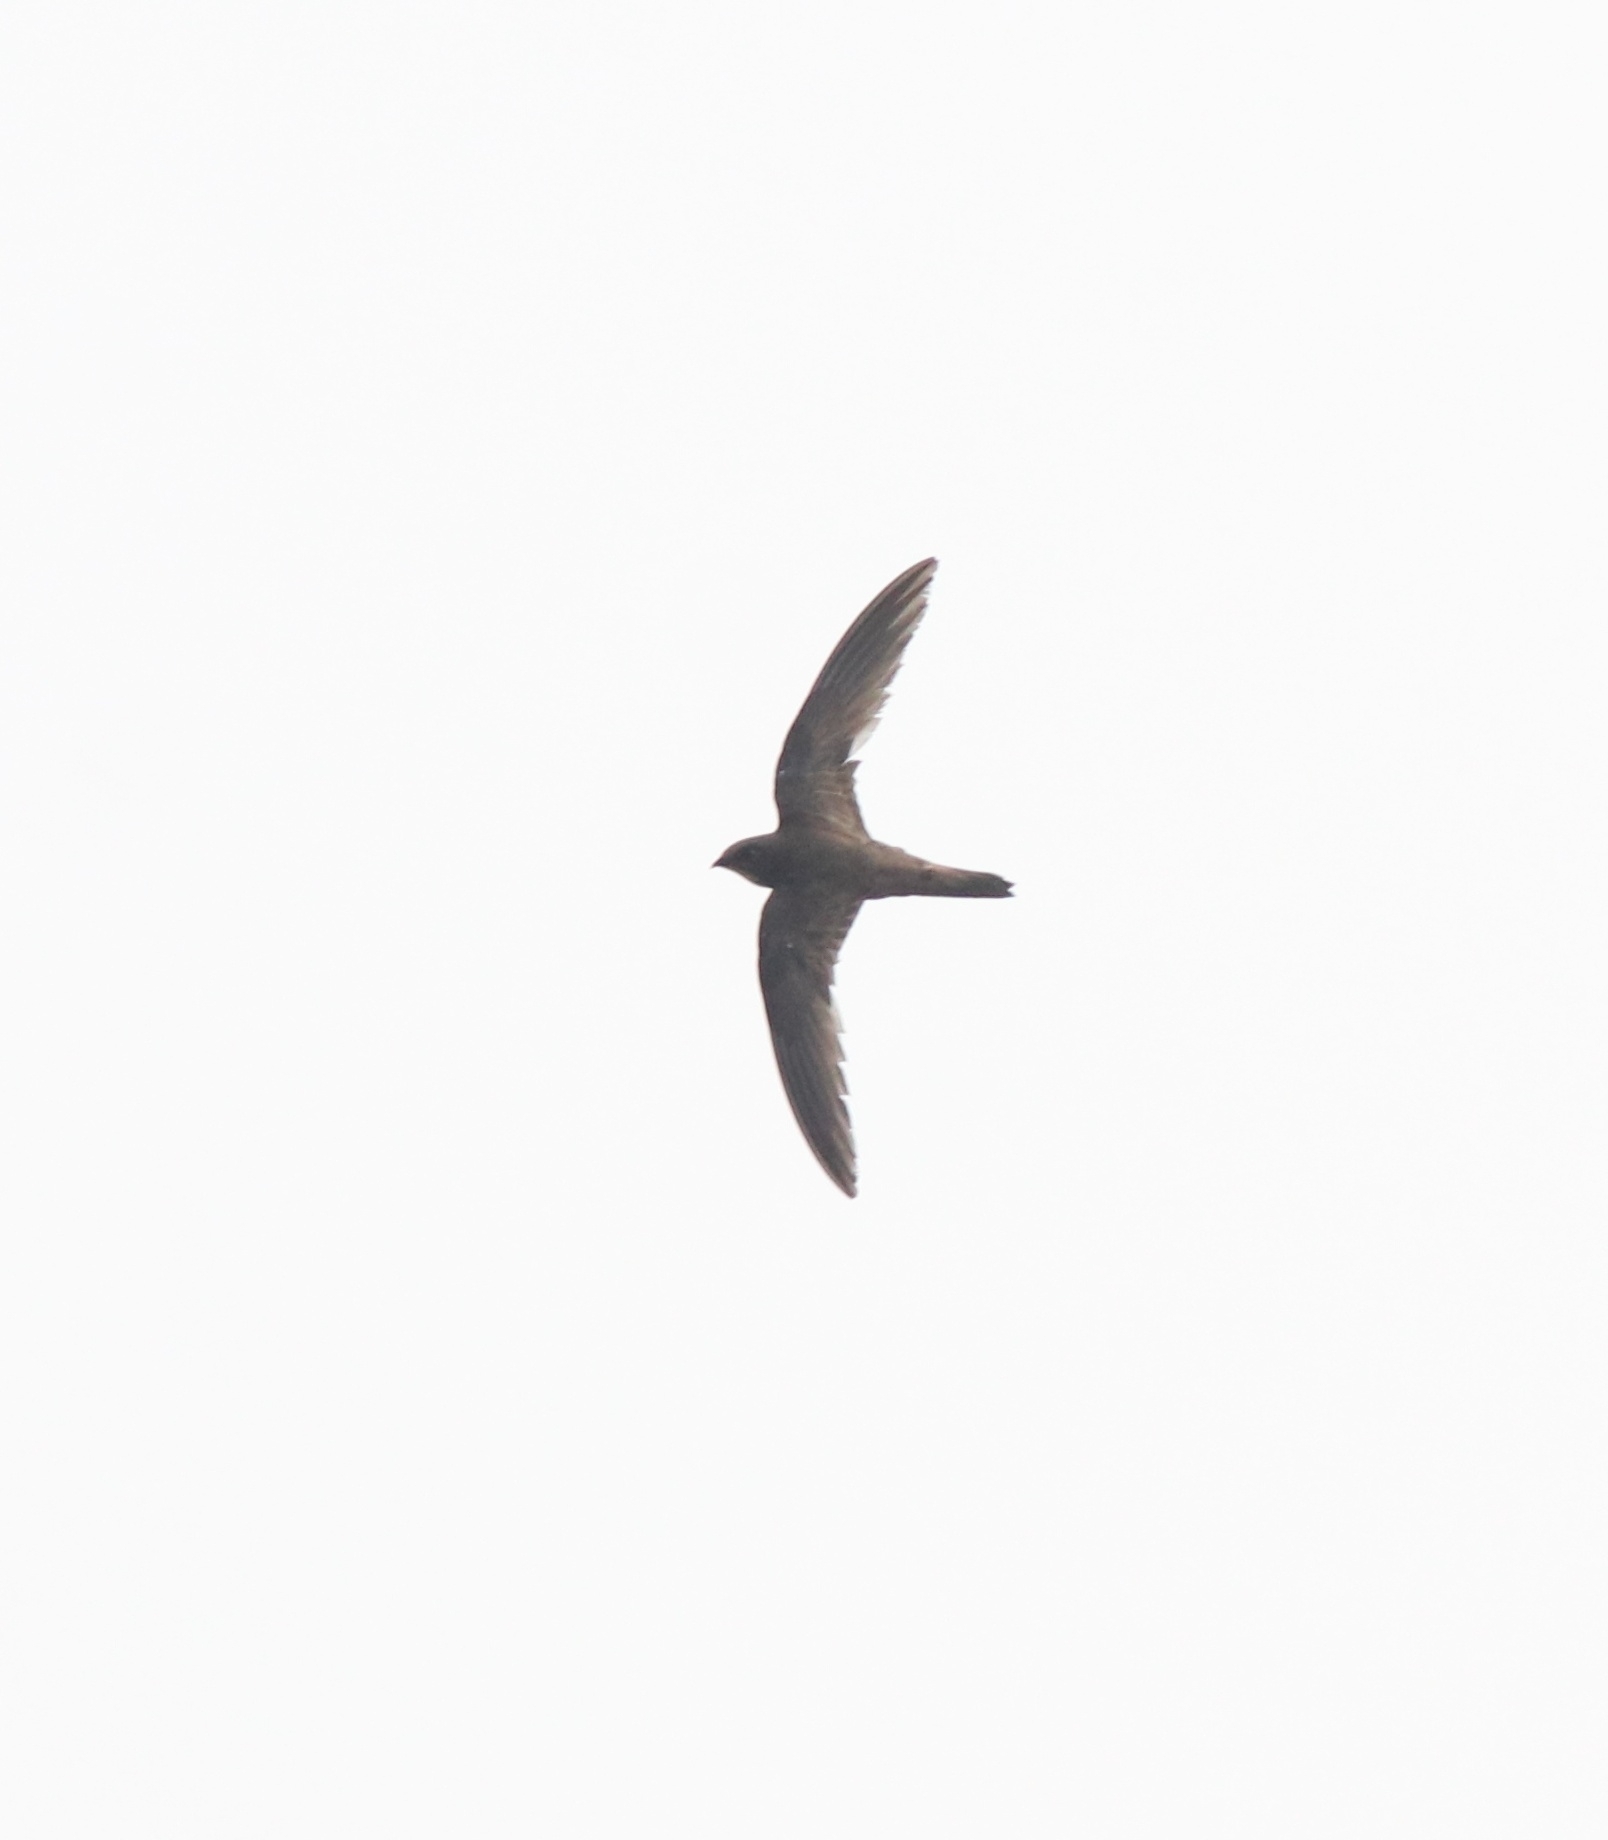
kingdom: Animalia
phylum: Chordata
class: Aves
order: Apodiformes
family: Apodidae
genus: Tachymarptis
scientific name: Tachymarptis melba
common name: Alpine swift
